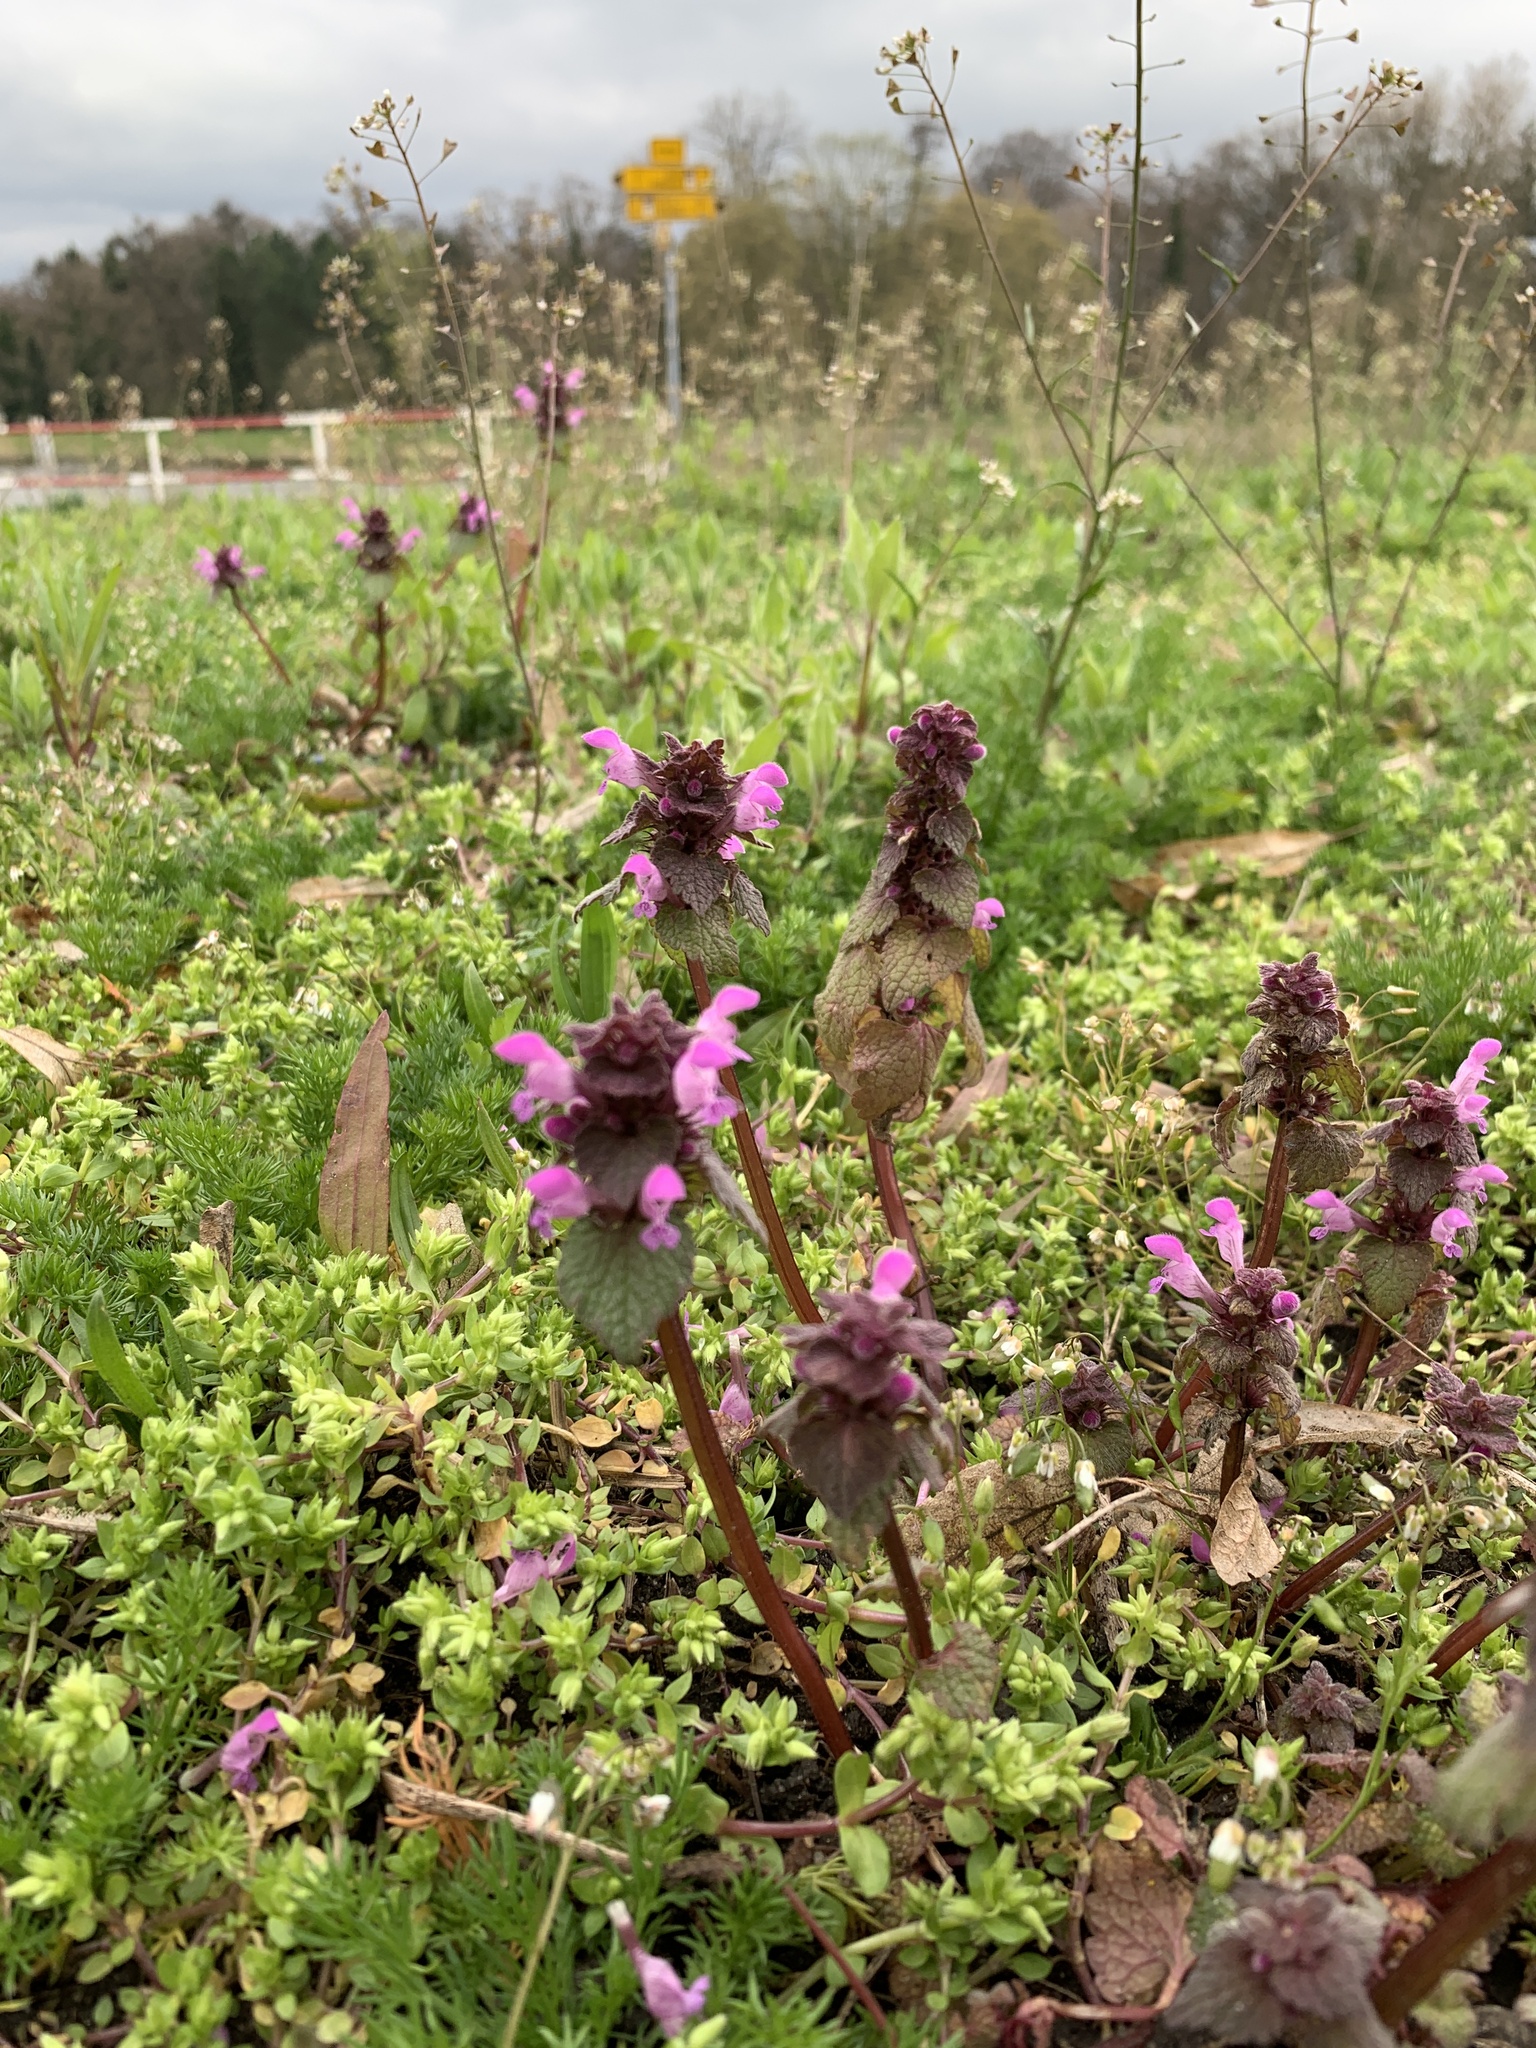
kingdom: Plantae
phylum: Tracheophyta
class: Magnoliopsida
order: Lamiales
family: Lamiaceae
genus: Lamium
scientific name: Lamium purpureum
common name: Red dead-nettle
